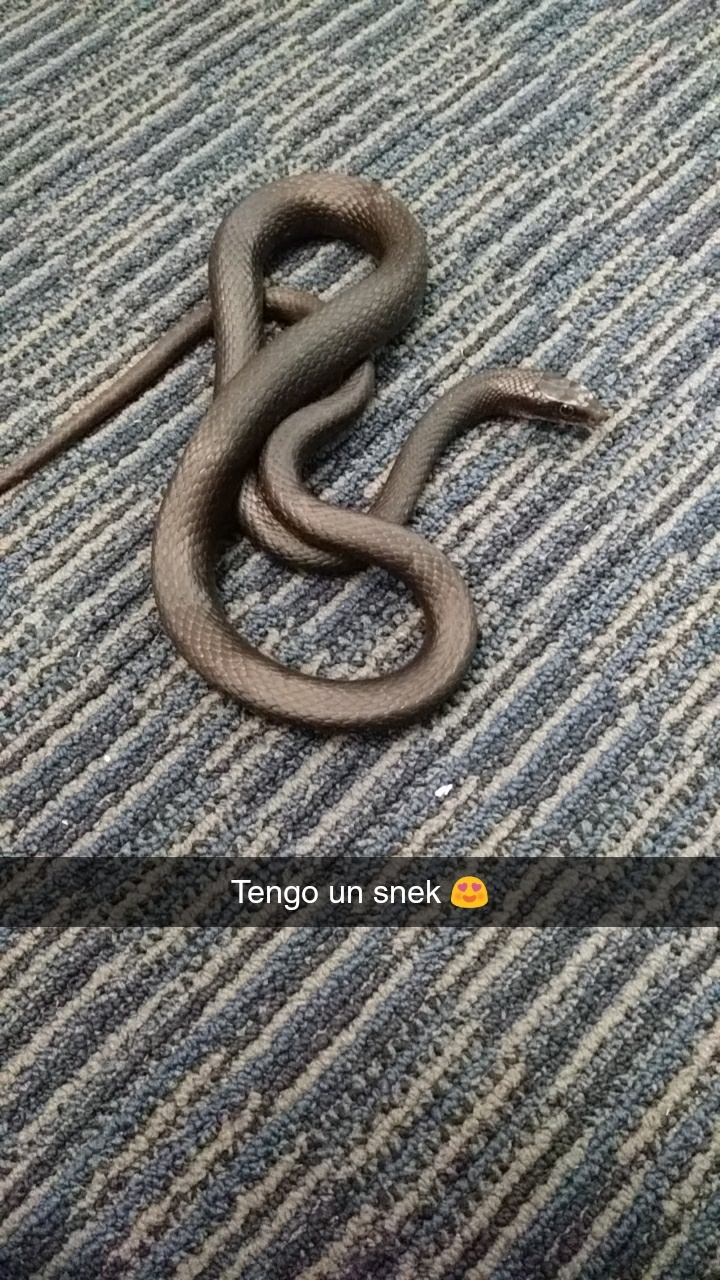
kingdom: Animalia
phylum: Chordata
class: Squamata
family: Colubridae
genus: Coluber
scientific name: Coluber constrictor
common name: Eastern racer
